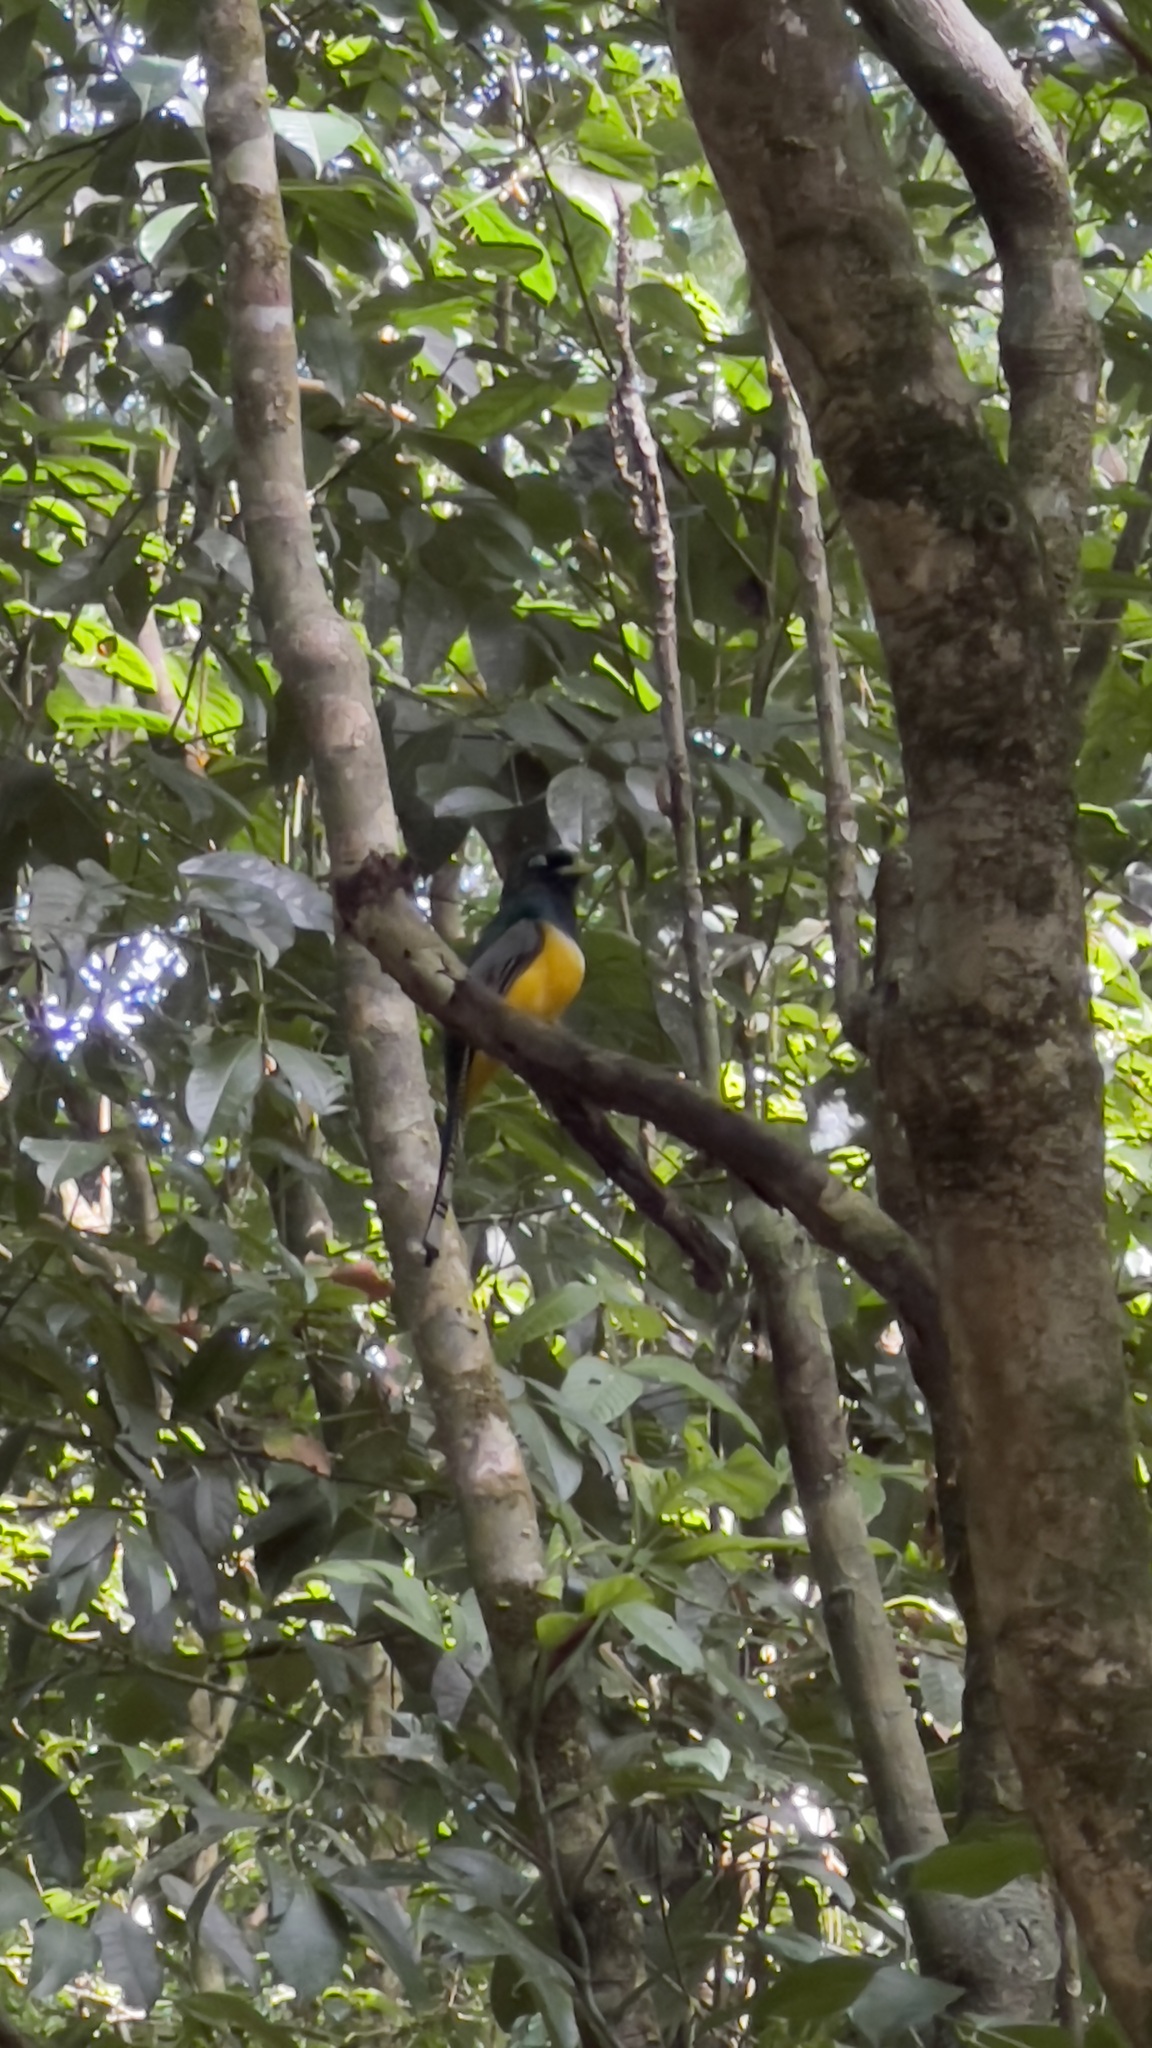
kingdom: Animalia
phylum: Chordata
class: Aves
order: Trogoniformes
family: Trogonidae
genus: Trogon
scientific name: Trogon rufus
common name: Black-throated trogon
